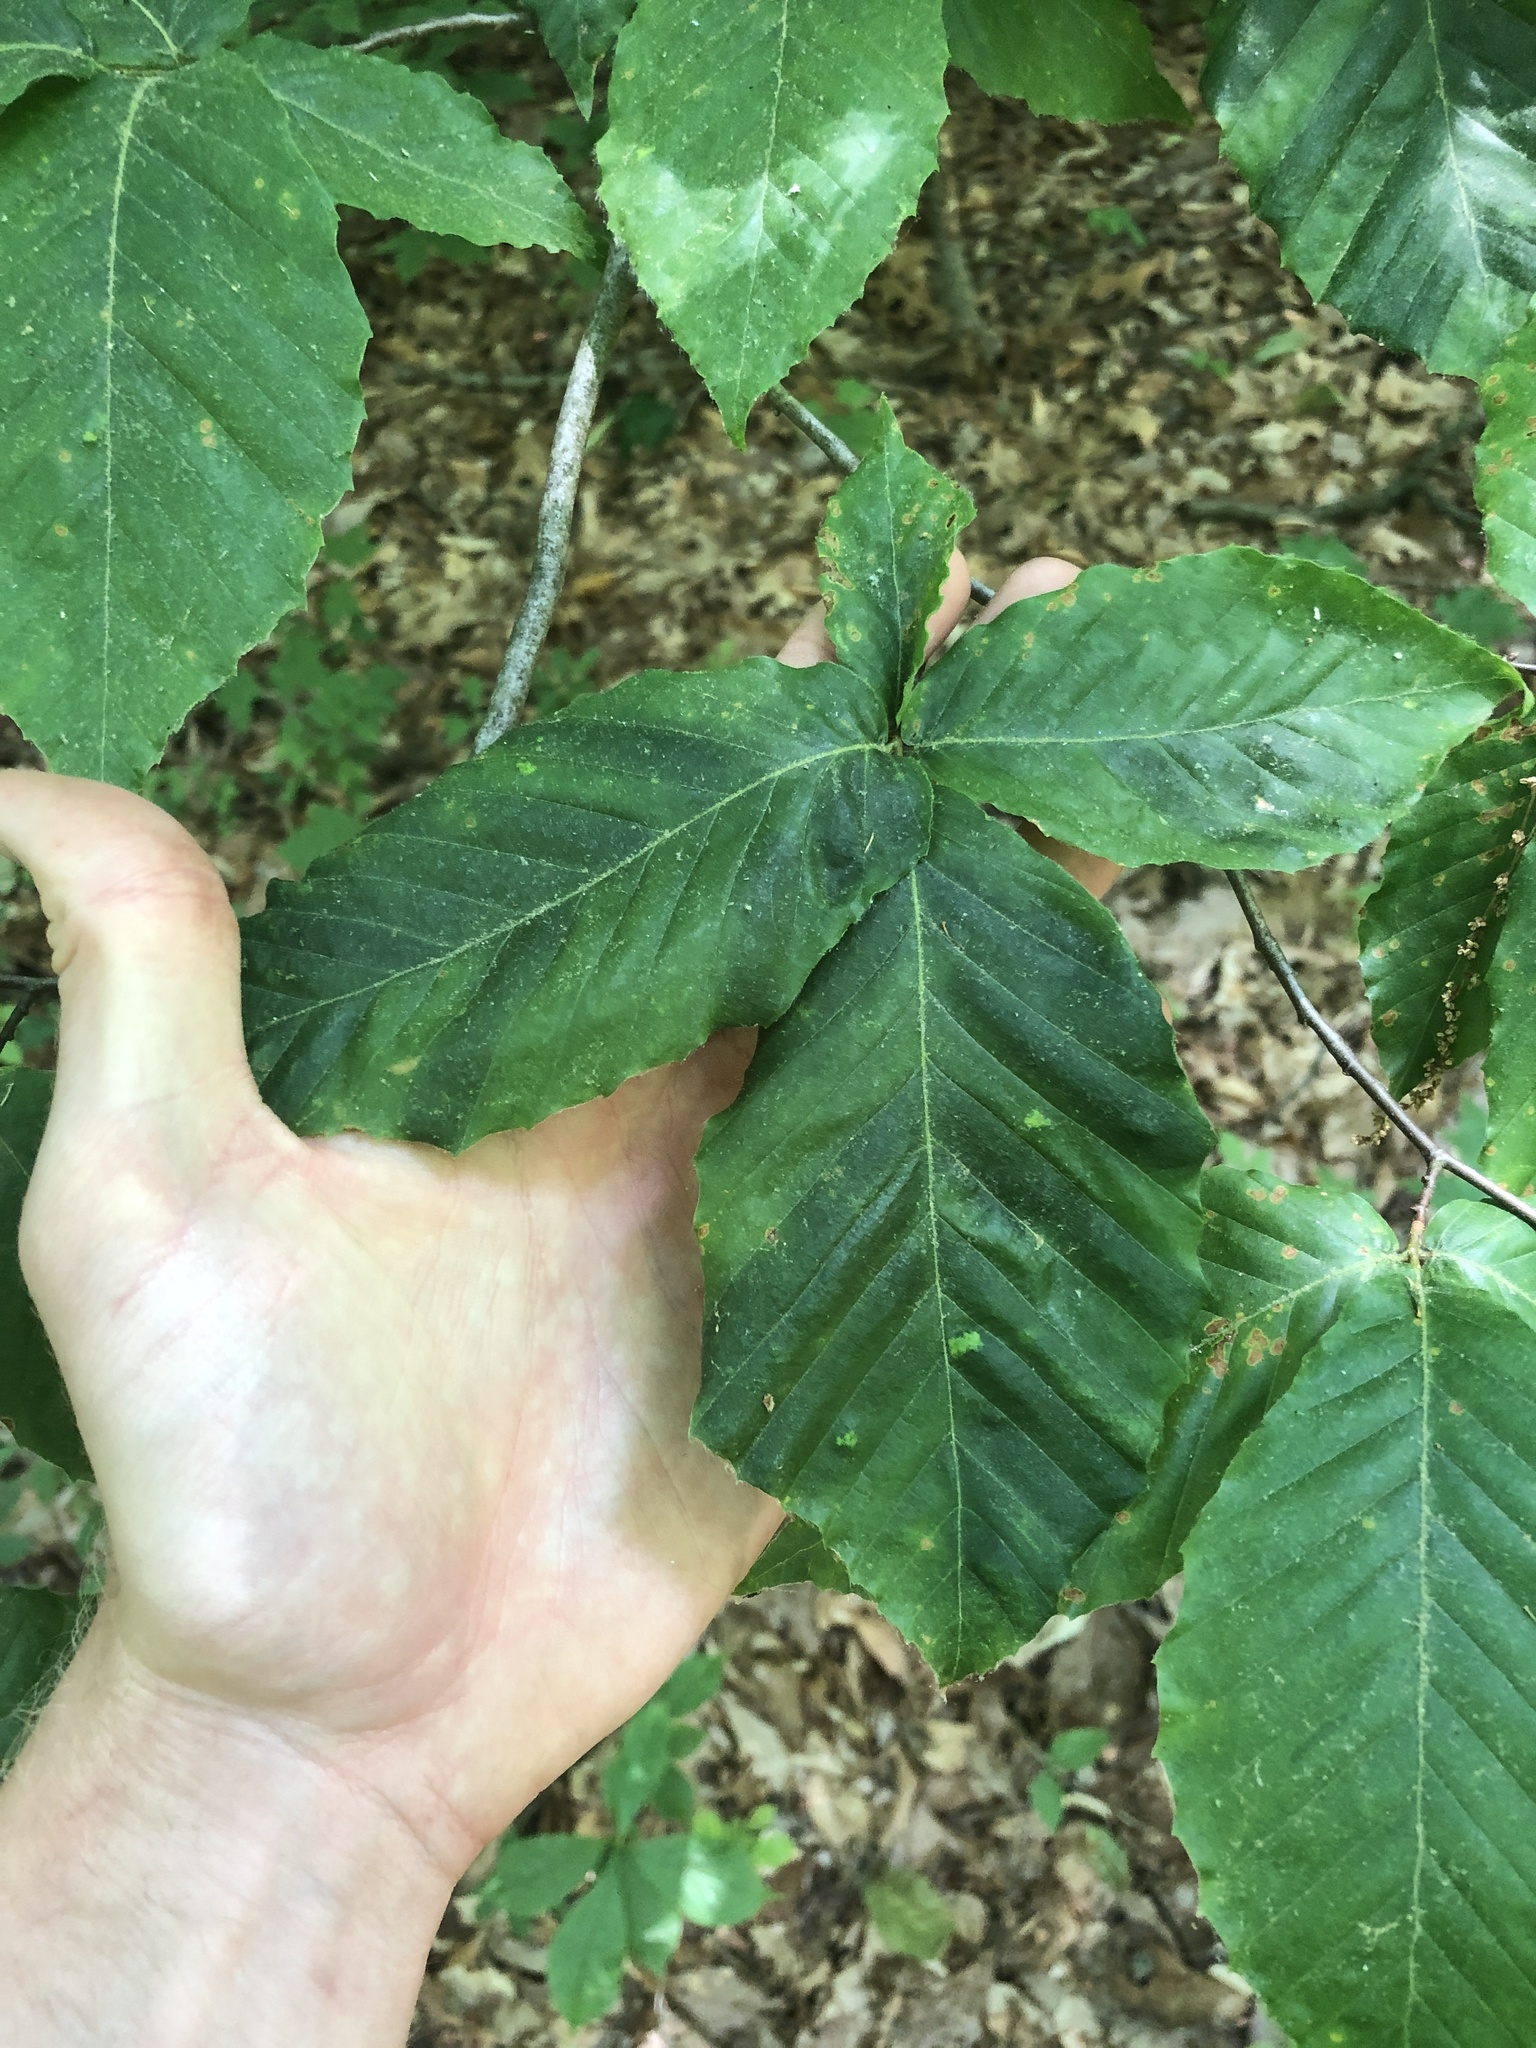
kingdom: Animalia
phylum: Nematoda
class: Chromadorea
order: Rhabditida
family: Anguinidae
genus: Litylenchus
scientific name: Litylenchus crenatae
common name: Beech leaf disease
